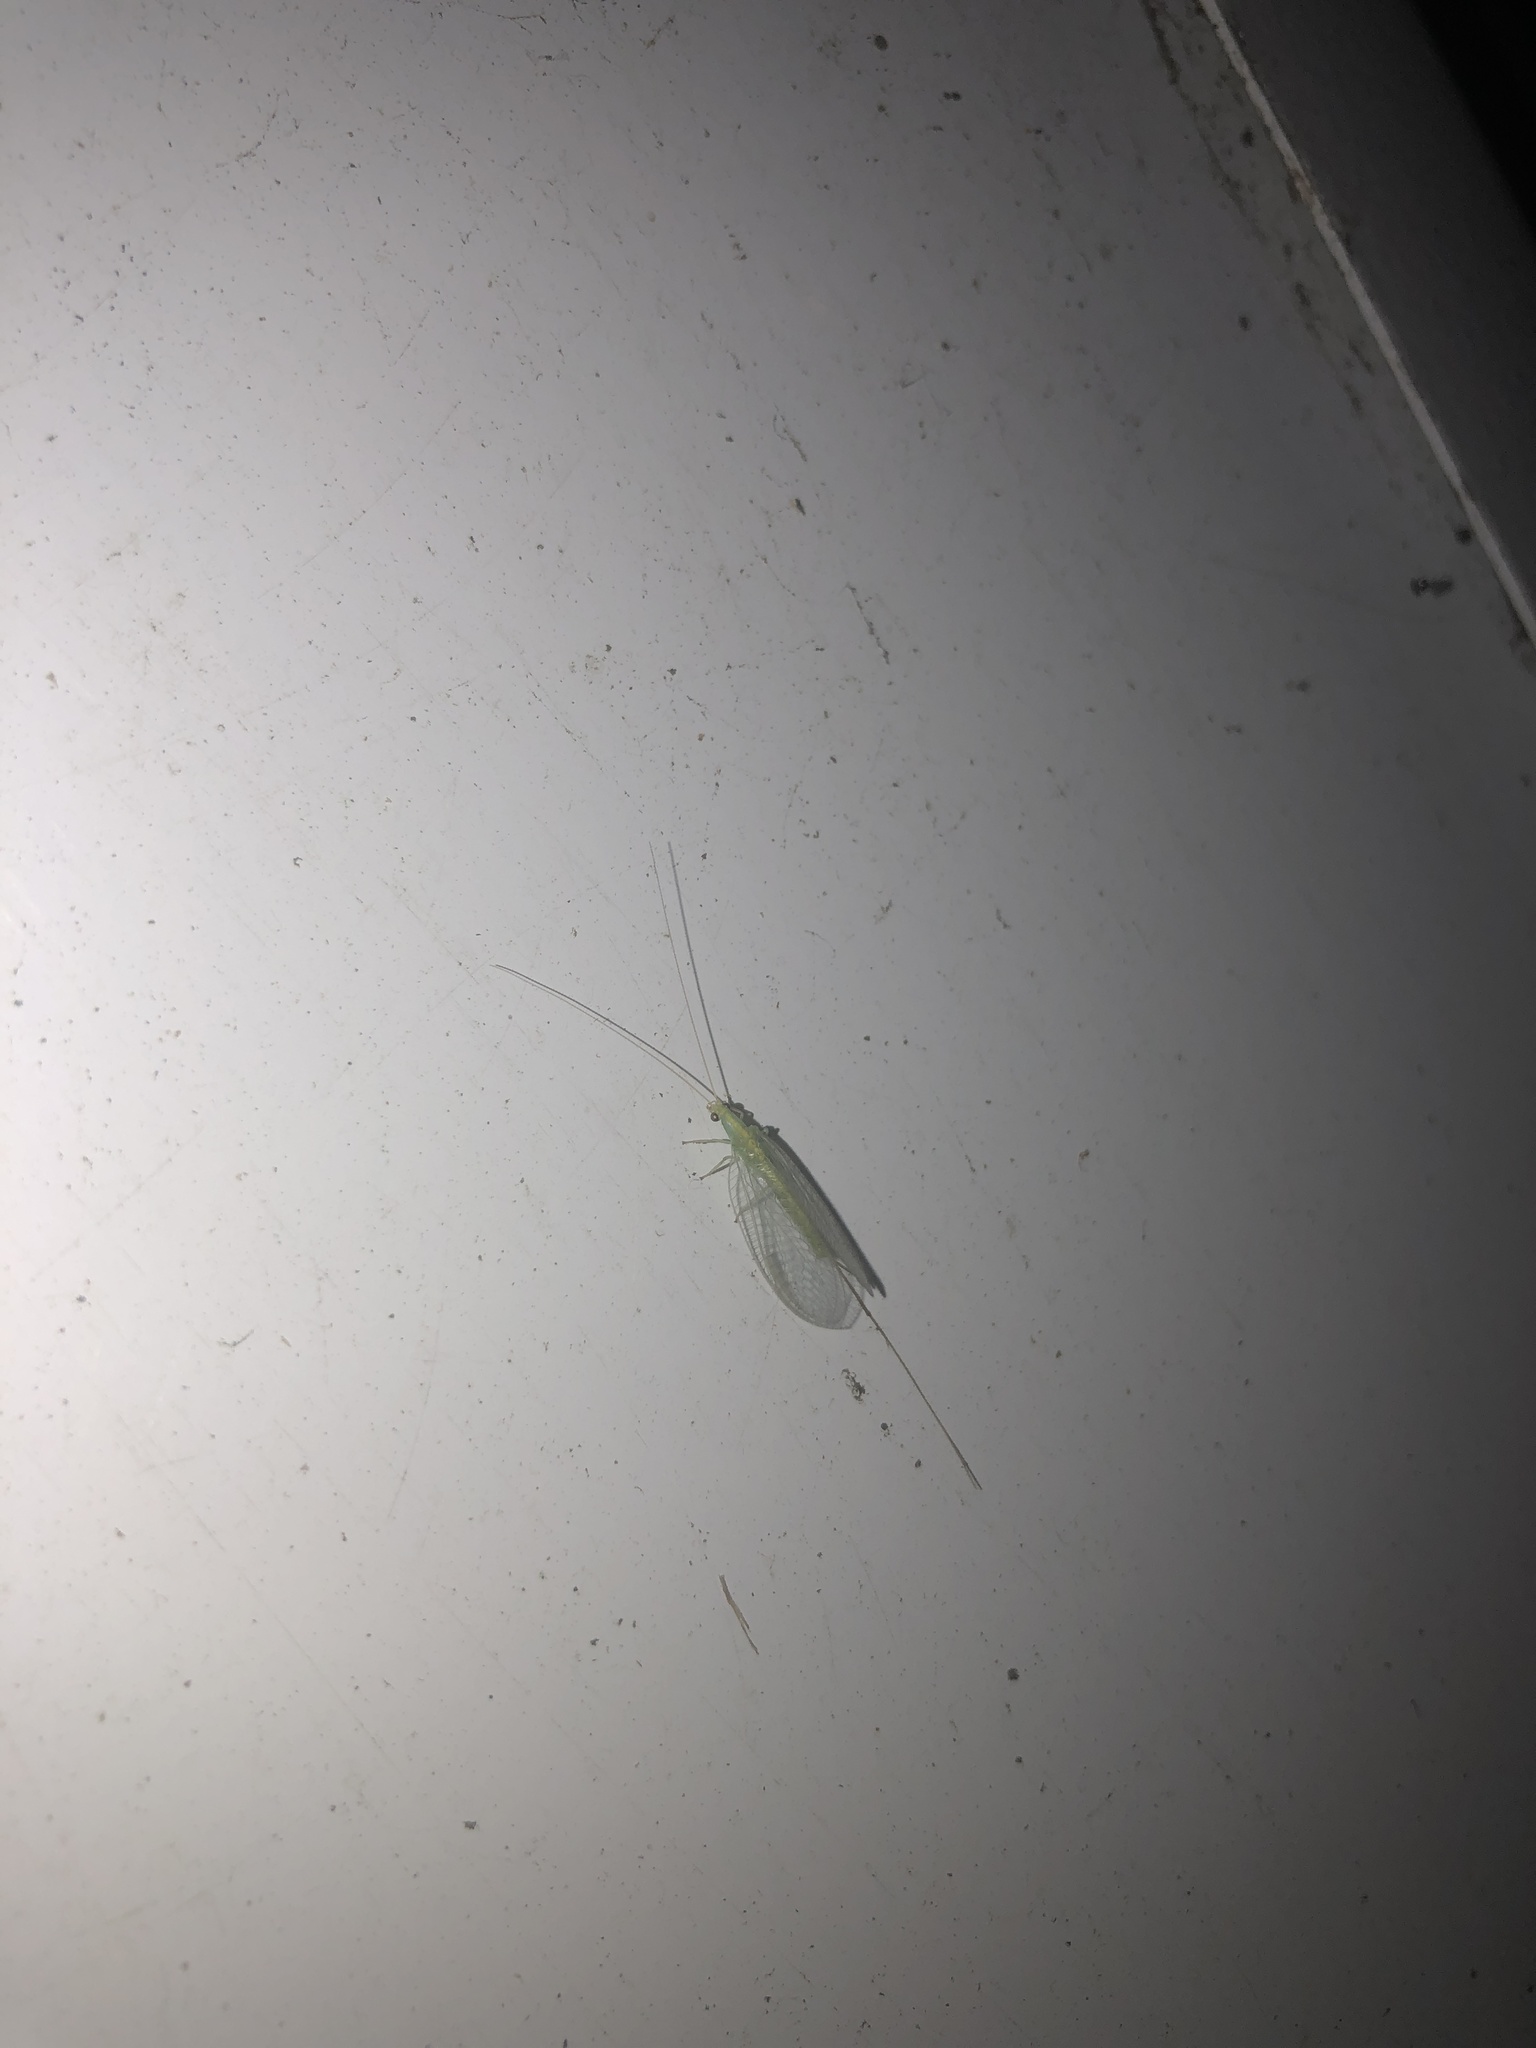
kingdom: Animalia
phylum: Arthropoda
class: Insecta
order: Neuroptera
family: Chrysopidae
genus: Mallada
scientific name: Mallada basalis
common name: Green lacewing
